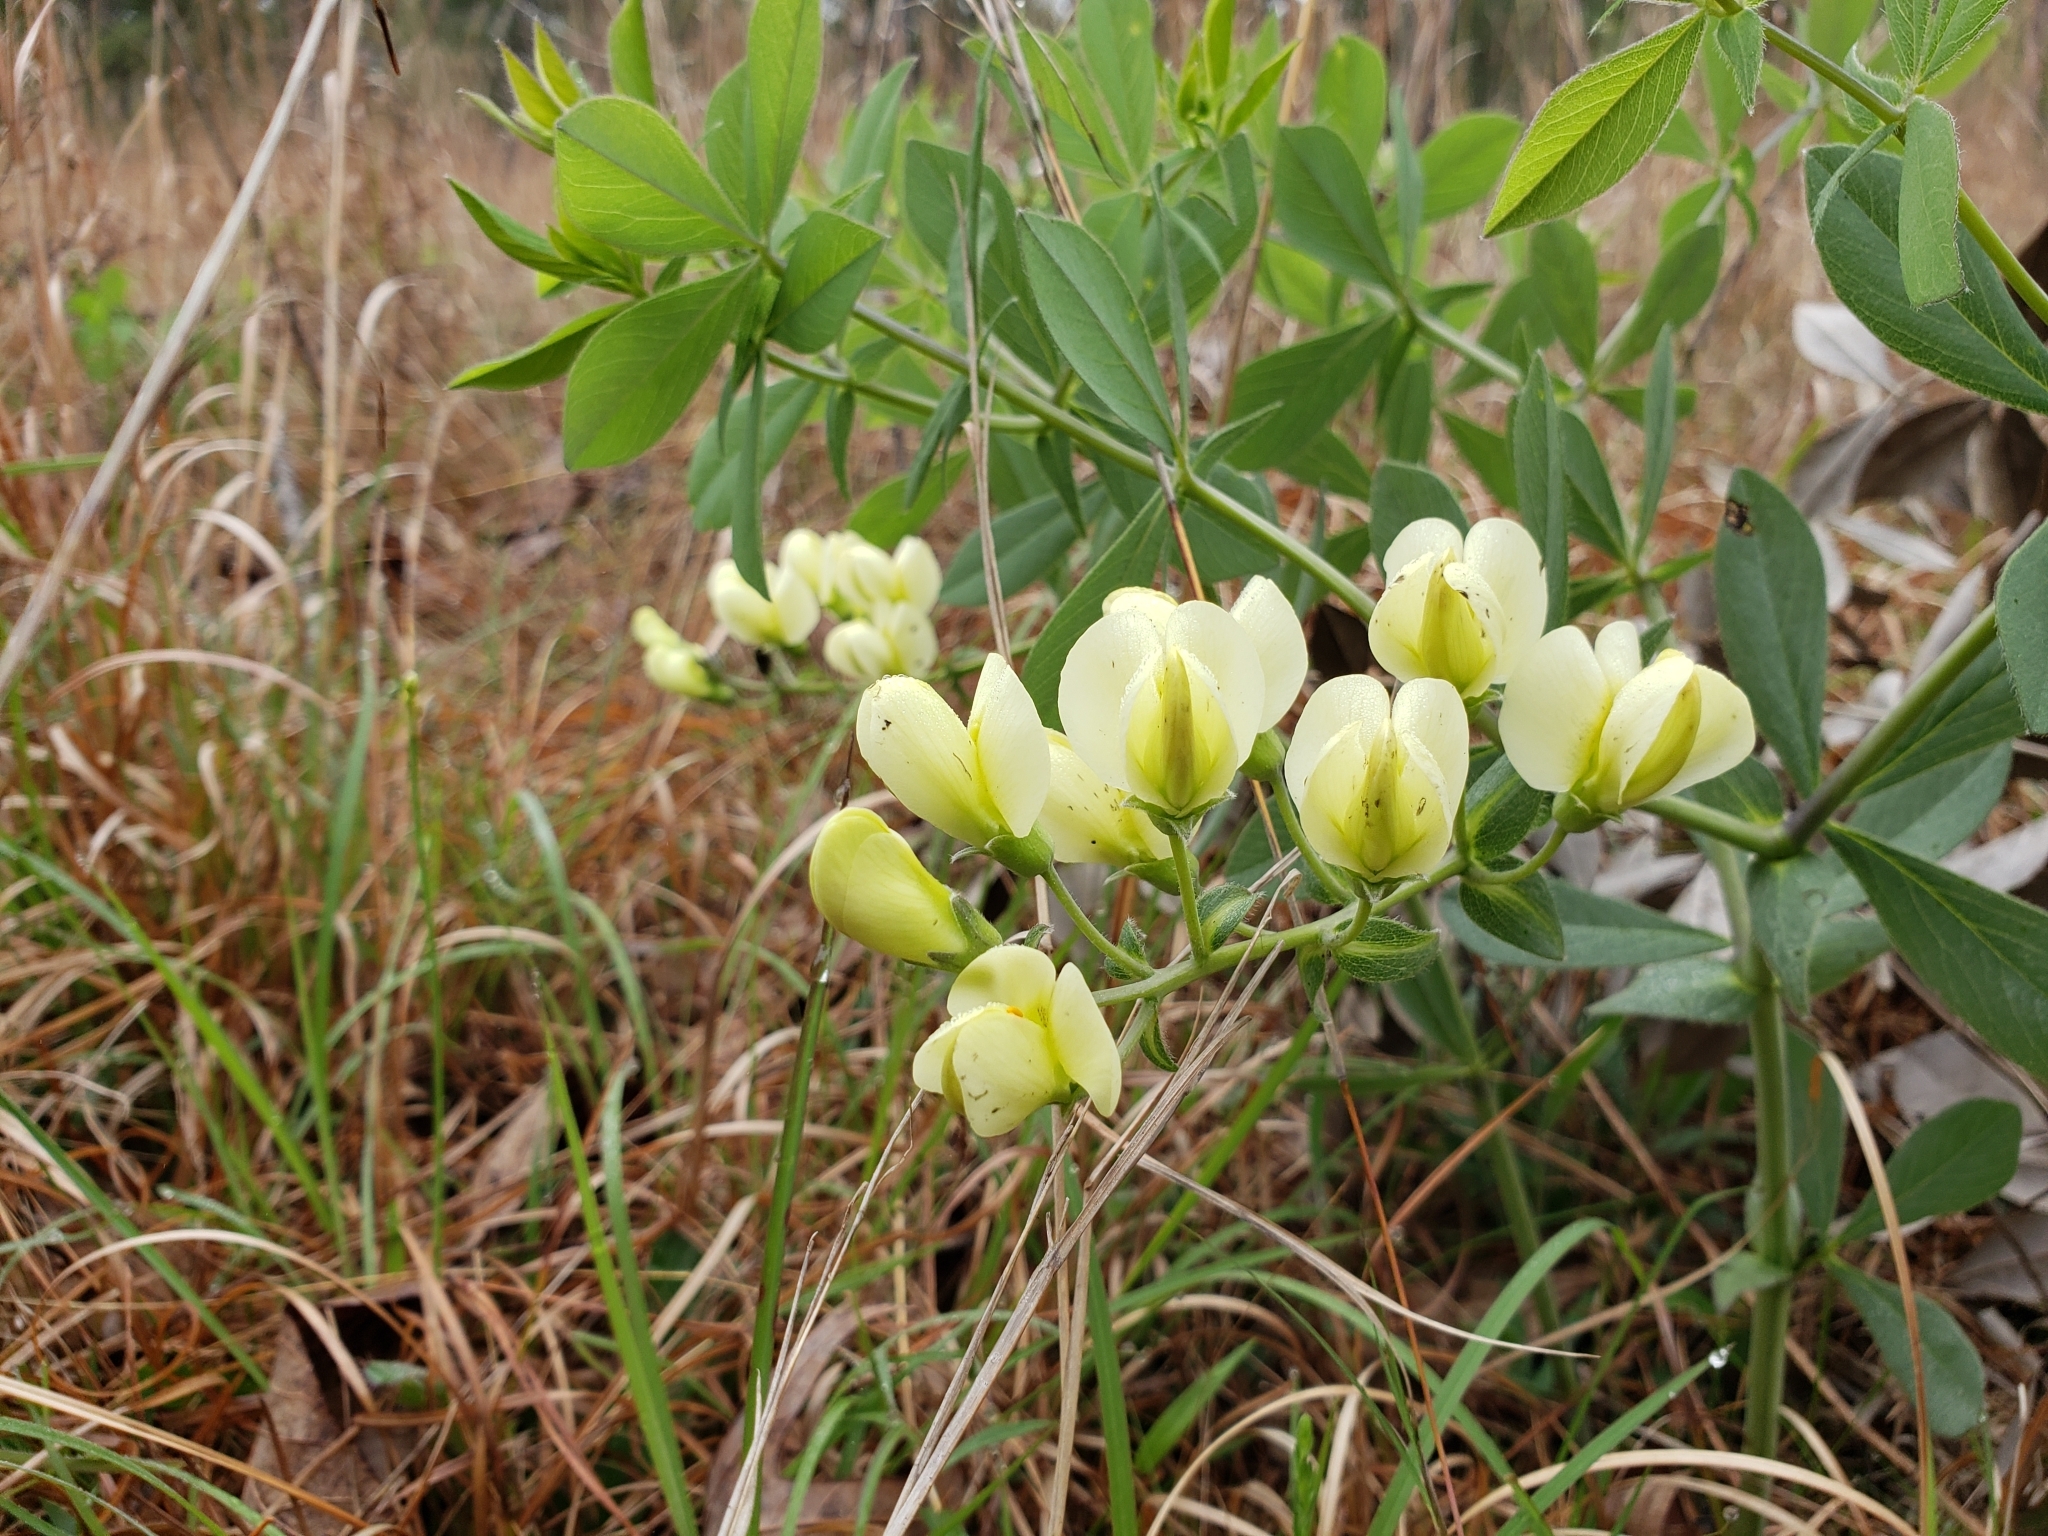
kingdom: Plantae
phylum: Tracheophyta
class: Magnoliopsida
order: Fabales
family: Fabaceae
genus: Baptisia
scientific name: Baptisia bracteata
